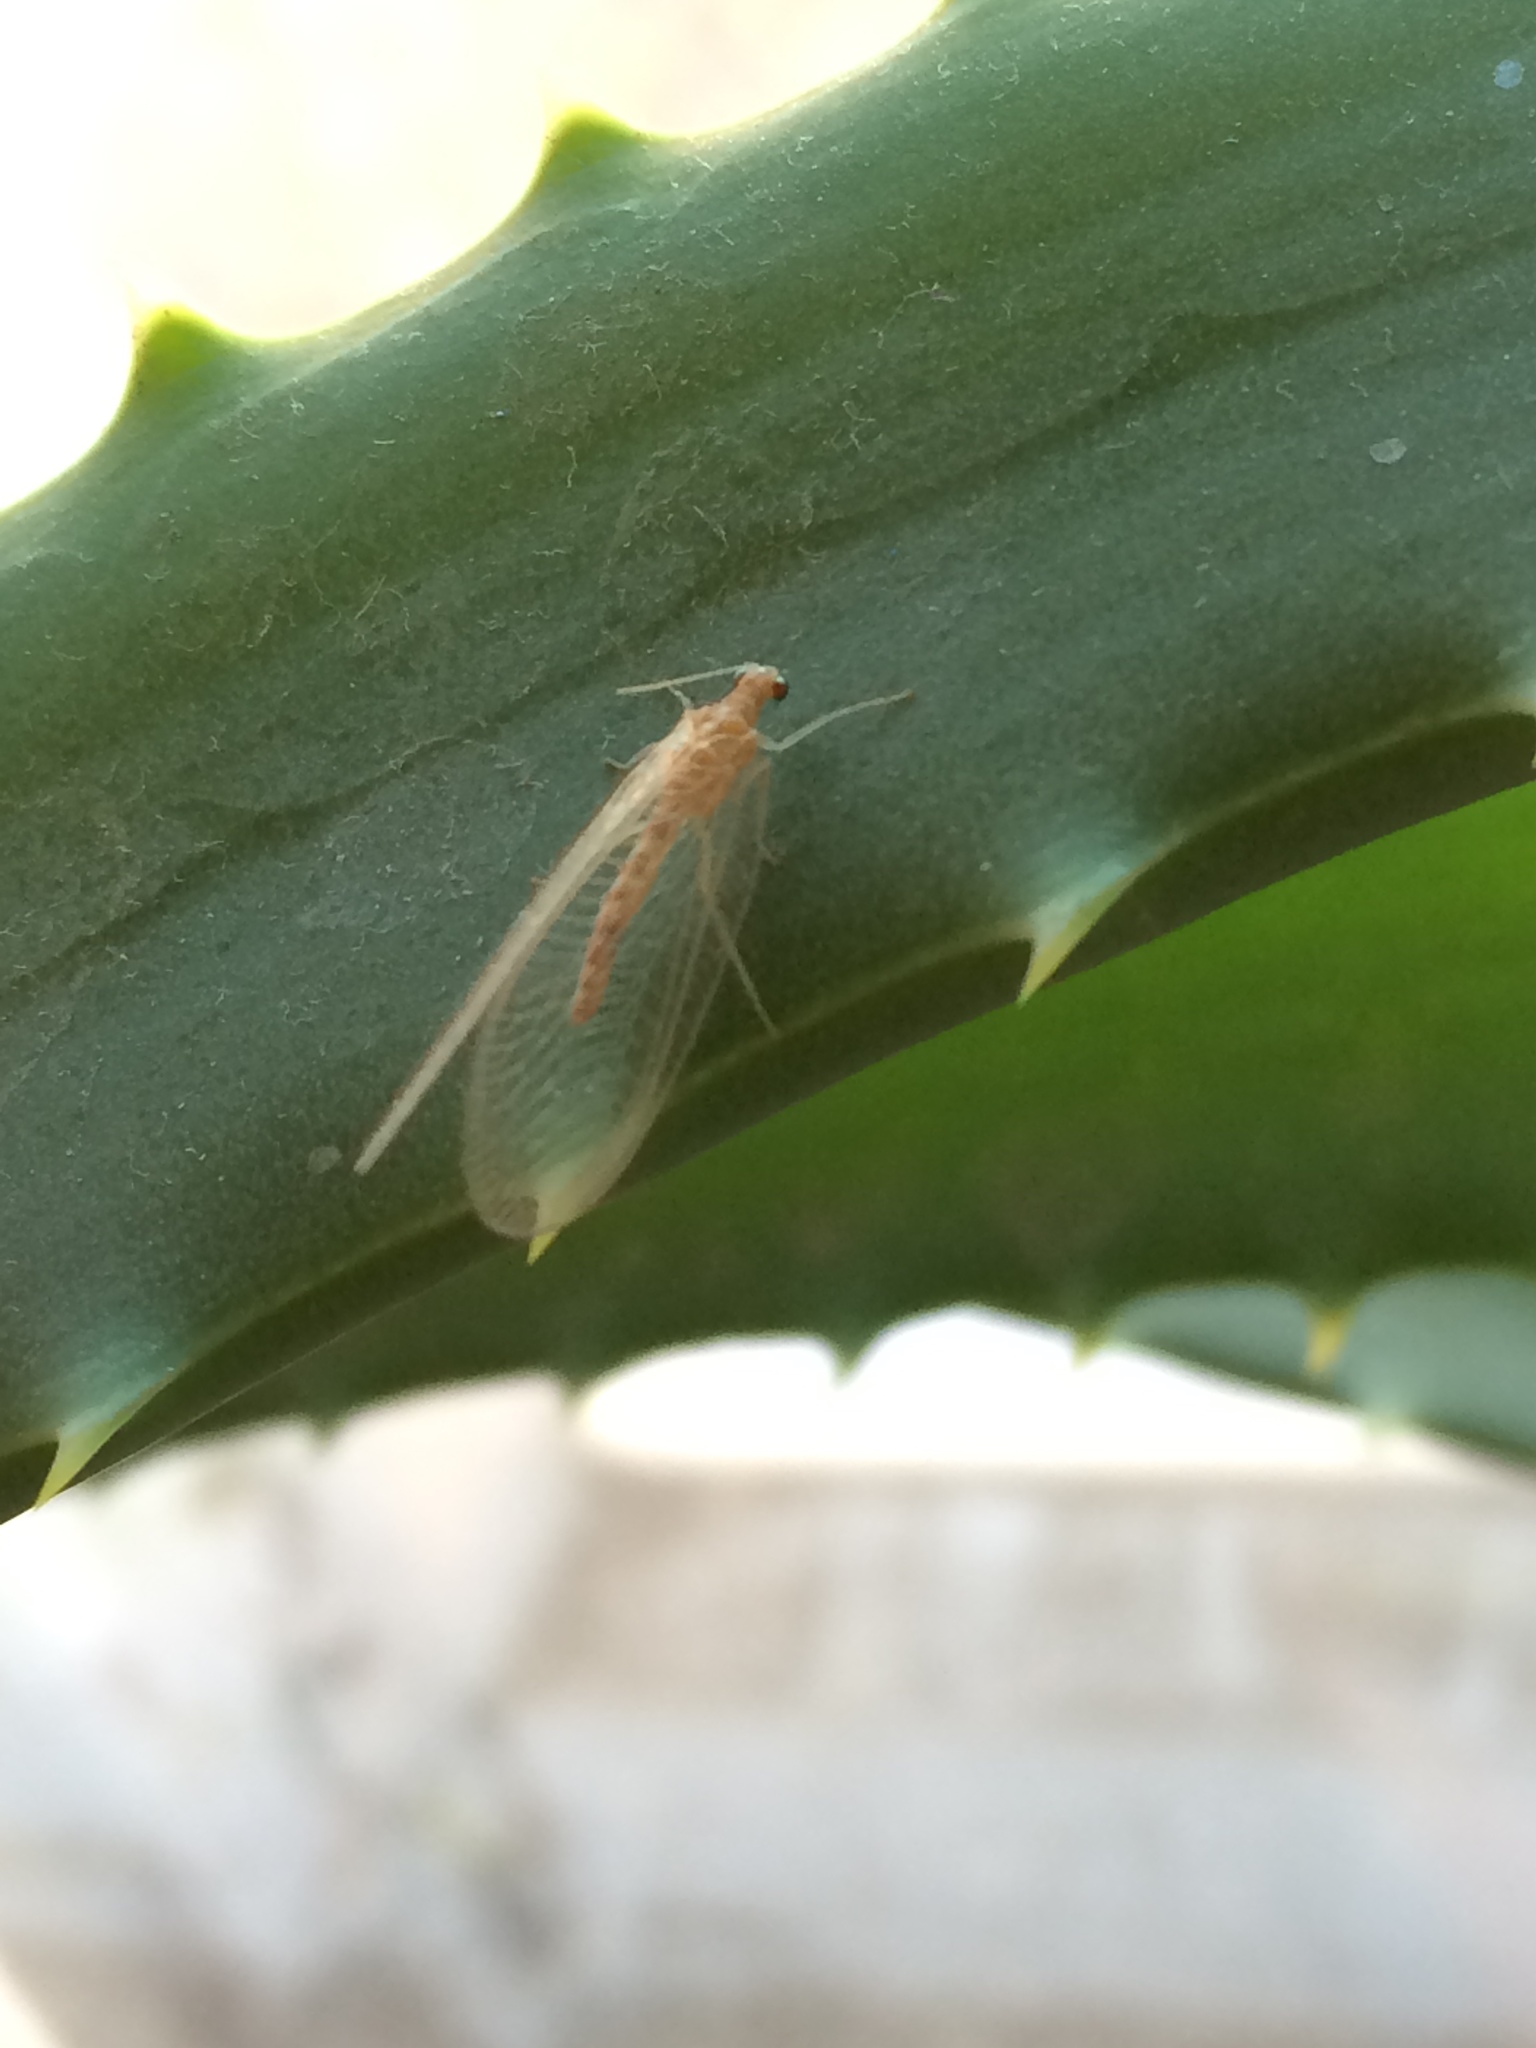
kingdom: Animalia
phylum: Arthropoda
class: Insecta
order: Neuroptera
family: Chrysopidae
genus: Chrysoperla
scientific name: Chrysoperla
